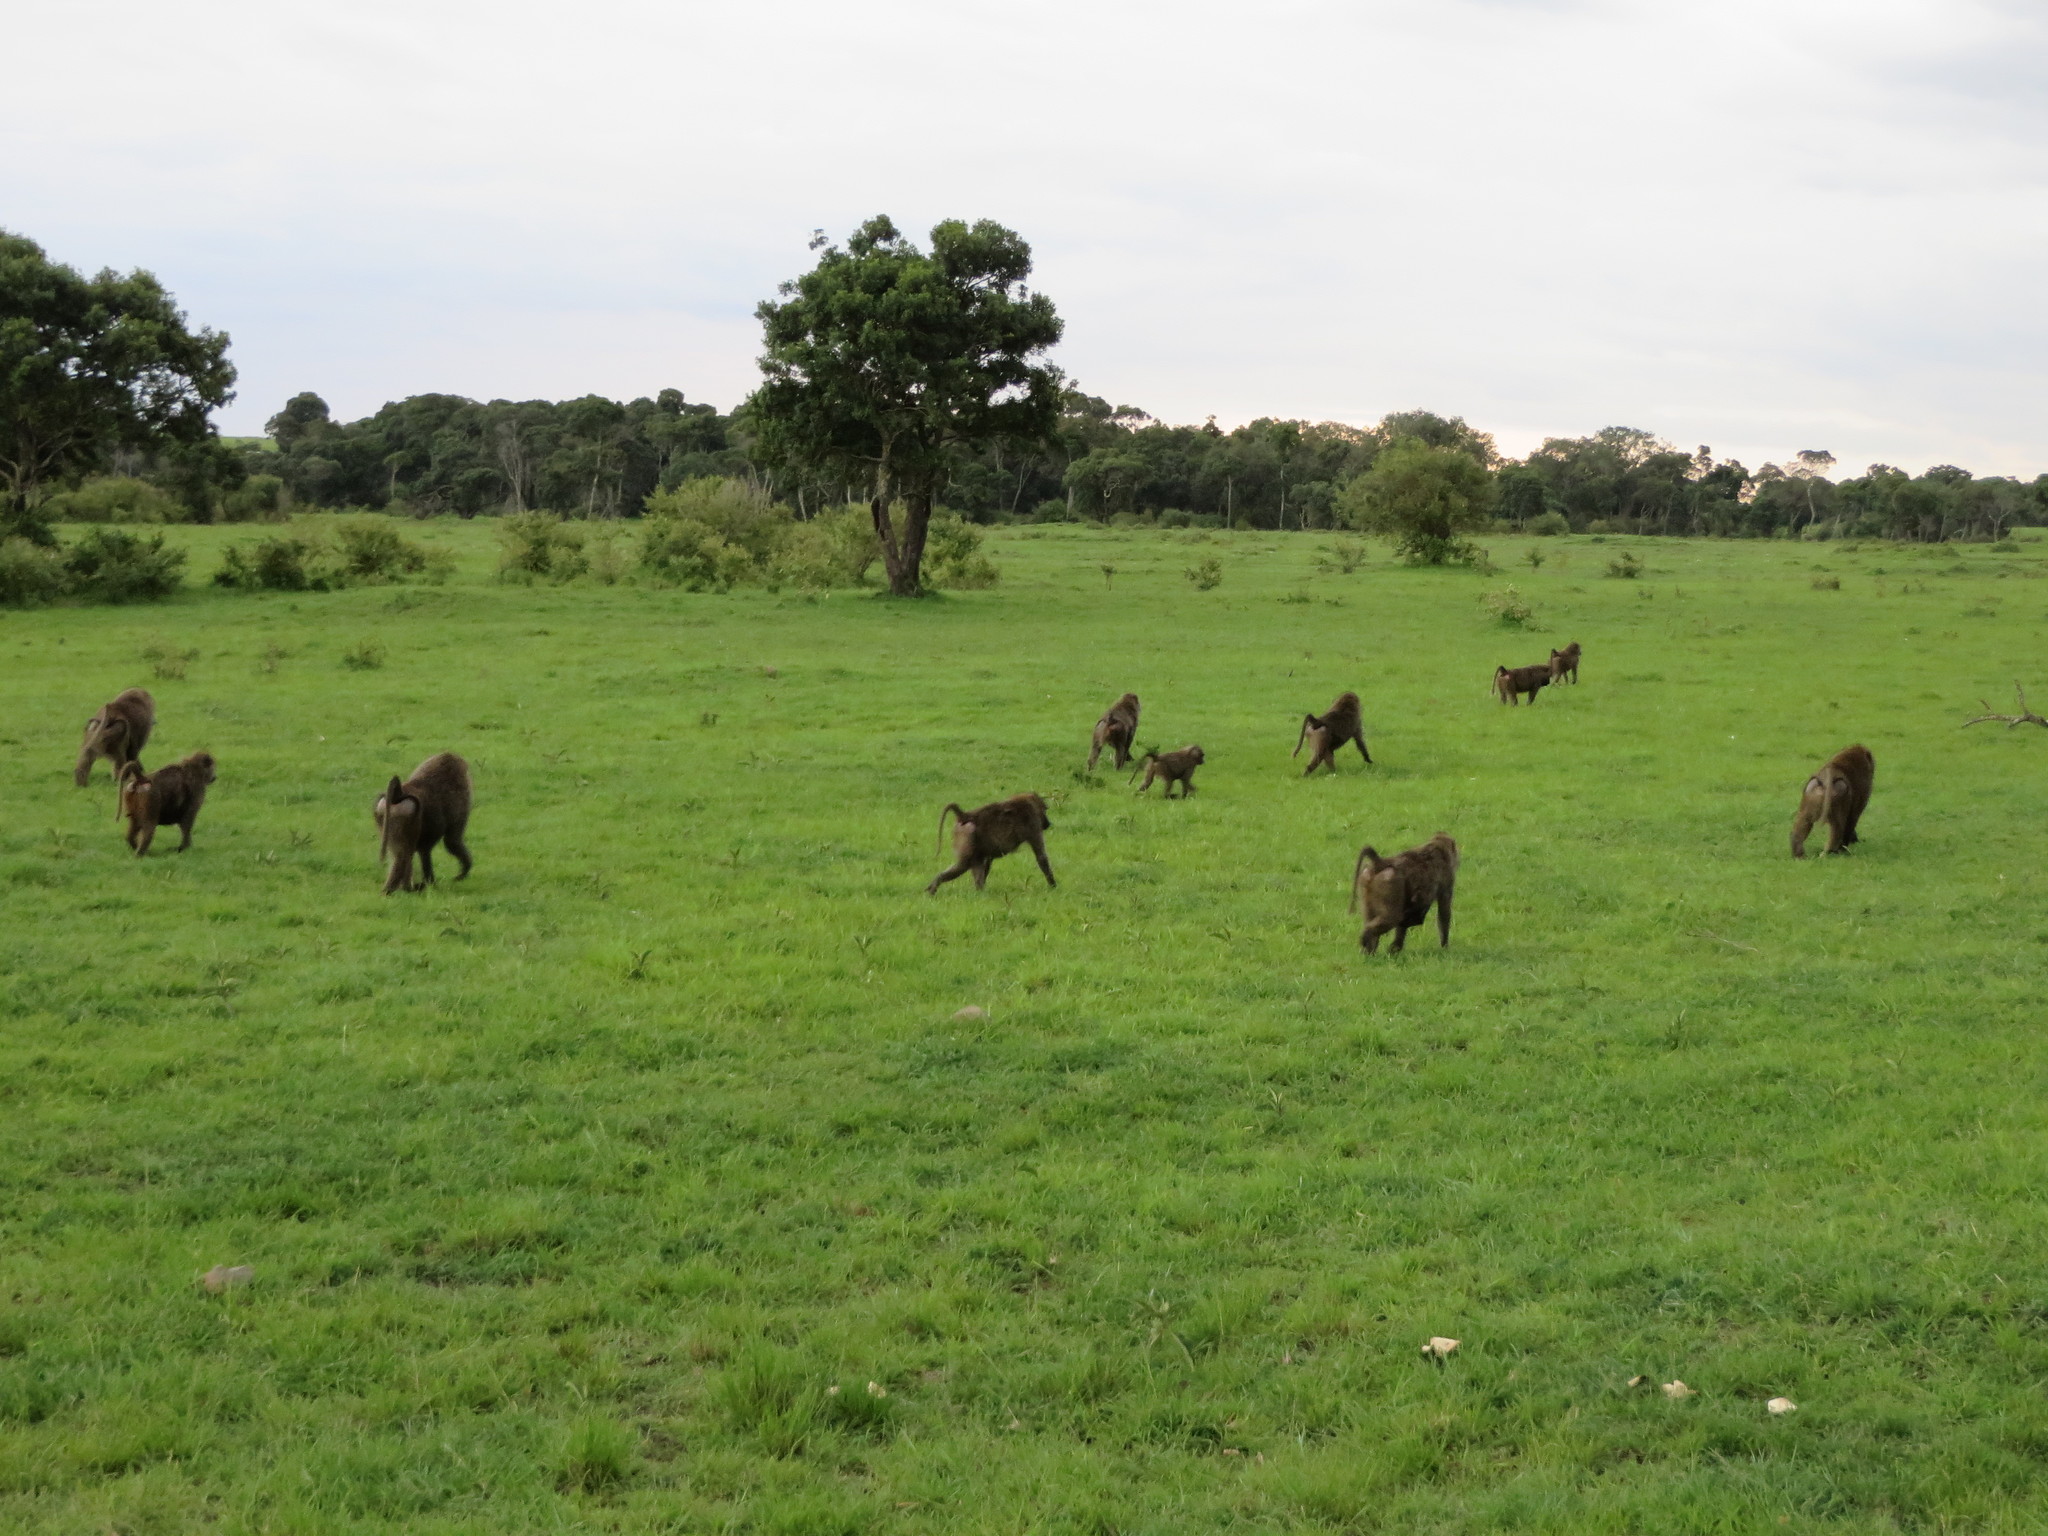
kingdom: Animalia
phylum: Chordata
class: Mammalia
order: Primates
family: Cercopithecidae
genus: Papio
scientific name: Papio anubis
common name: Olive baboon
